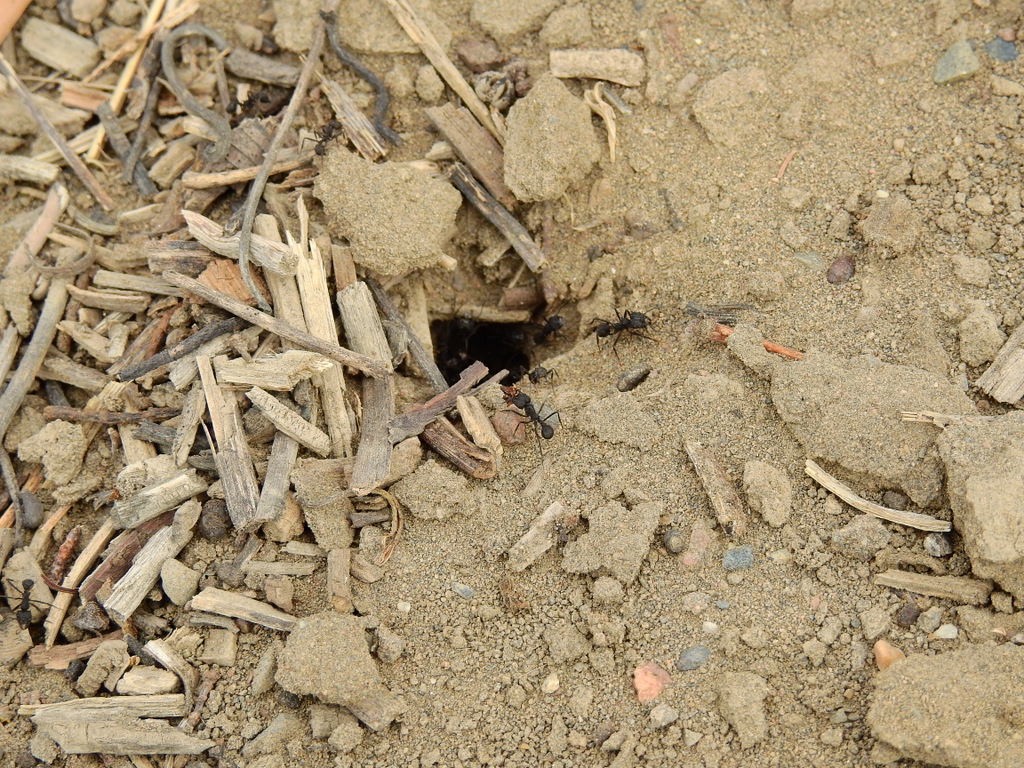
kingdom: Animalia
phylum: Arthropoda
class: Insecta
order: Hymenoptera
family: Formicidae
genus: Acromyrmex
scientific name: Acromyrmex lobicornis
